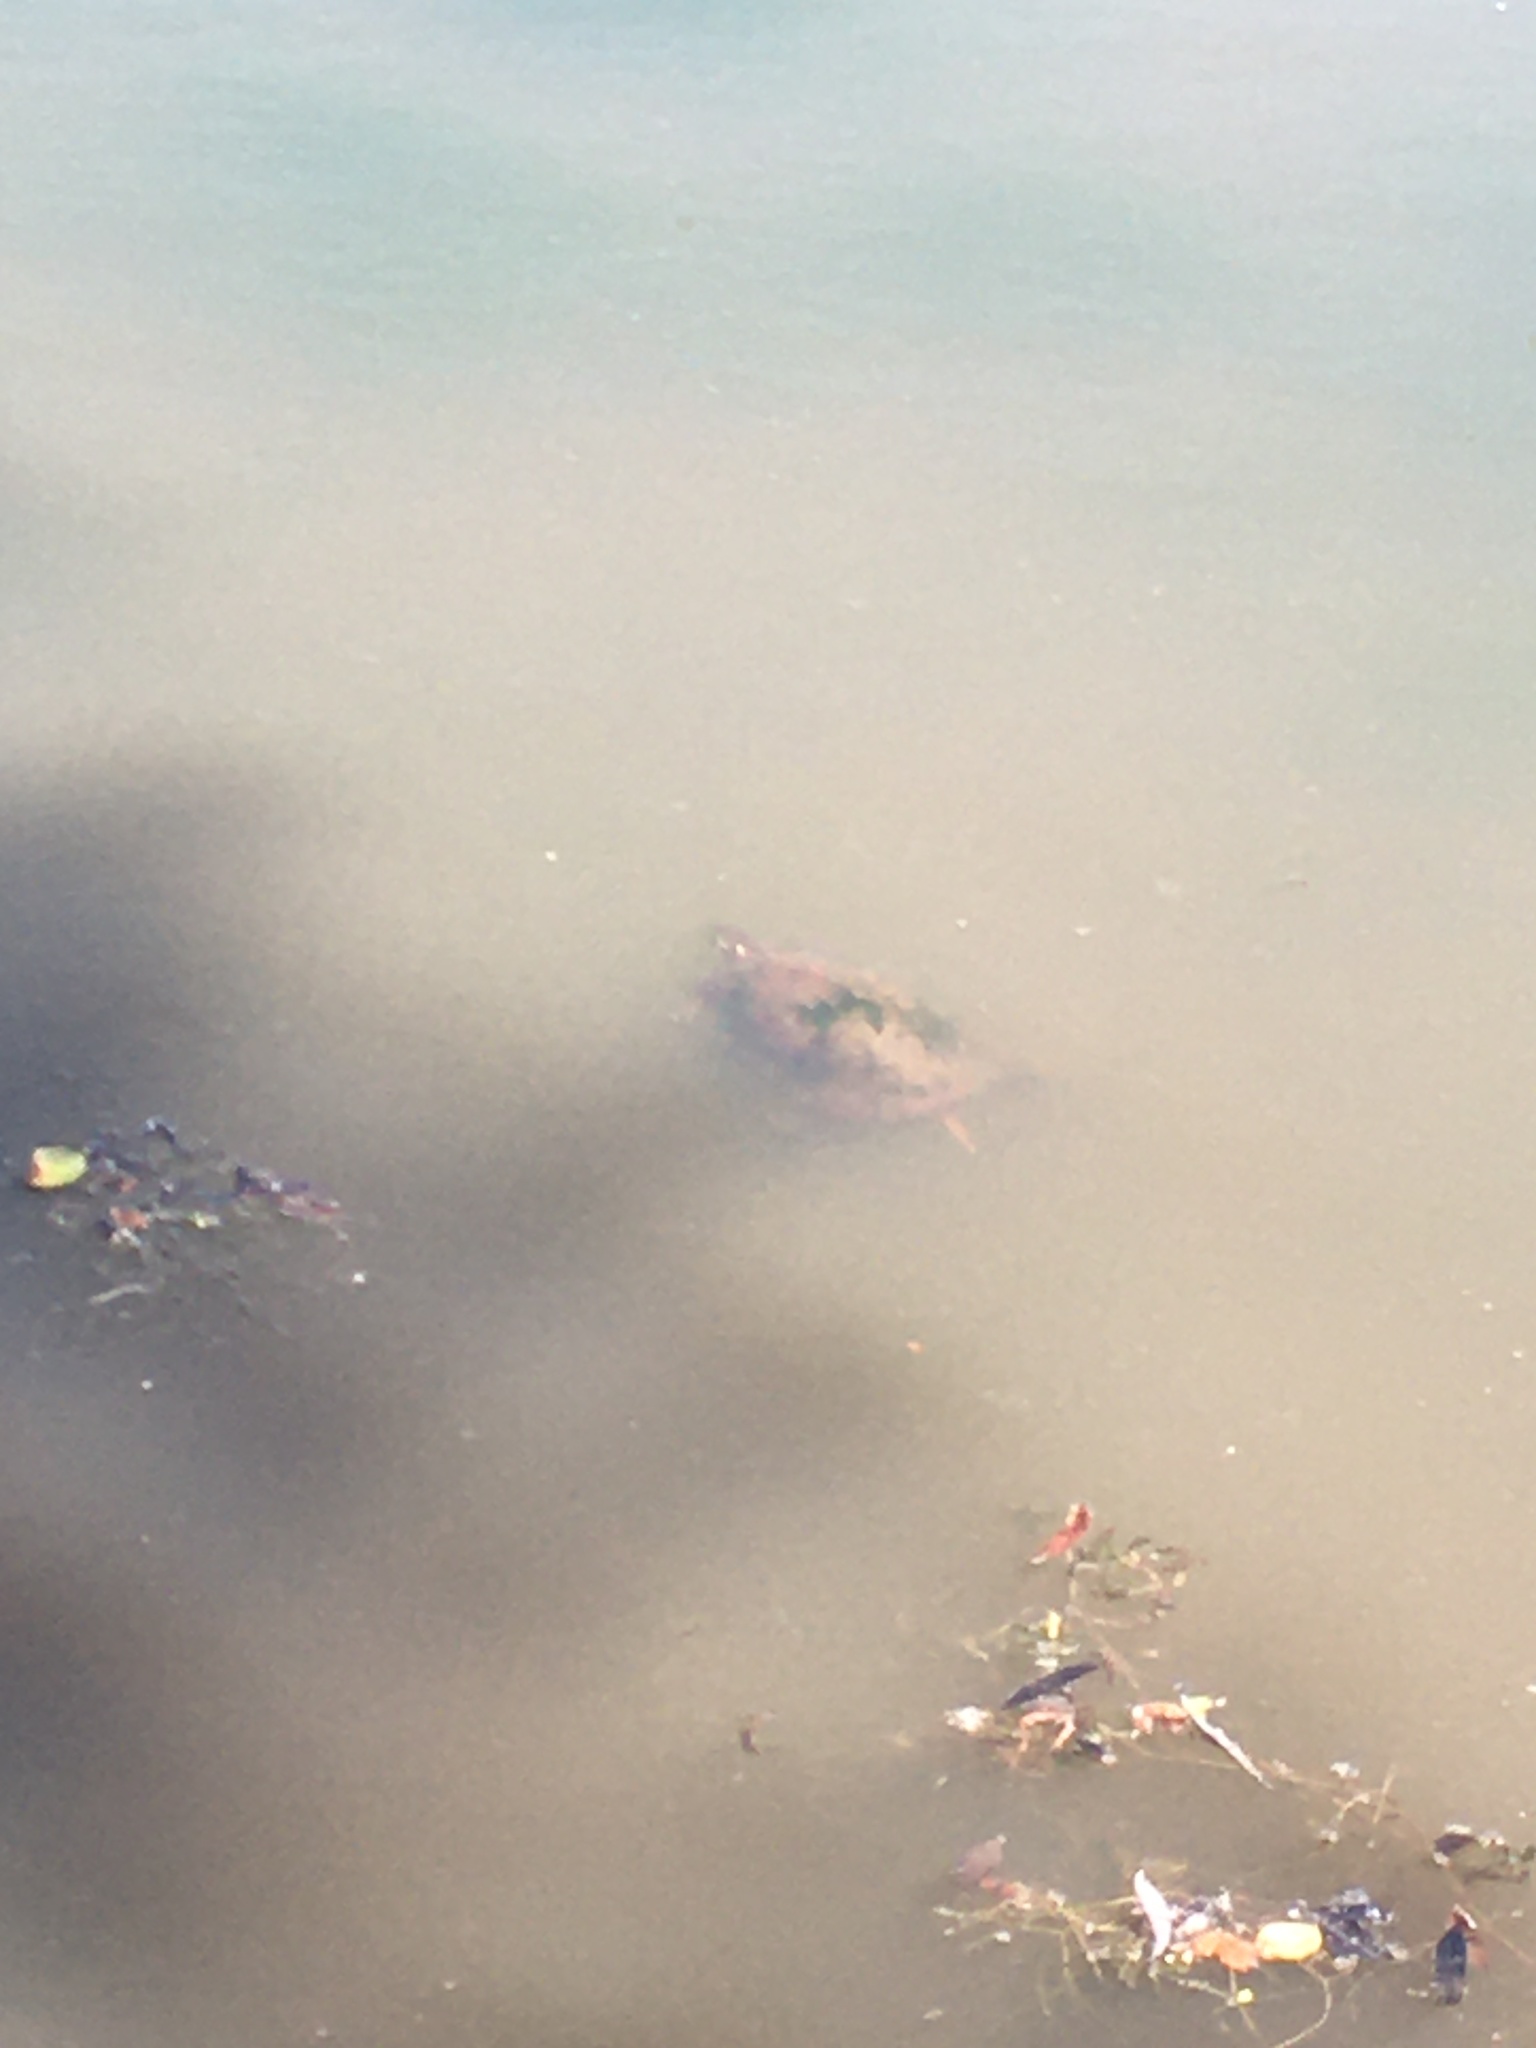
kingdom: Animalia
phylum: Chordata
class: Testudines
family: Emydidae
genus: Chrysemys
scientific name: Chrysemys picta
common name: Painted turtle
